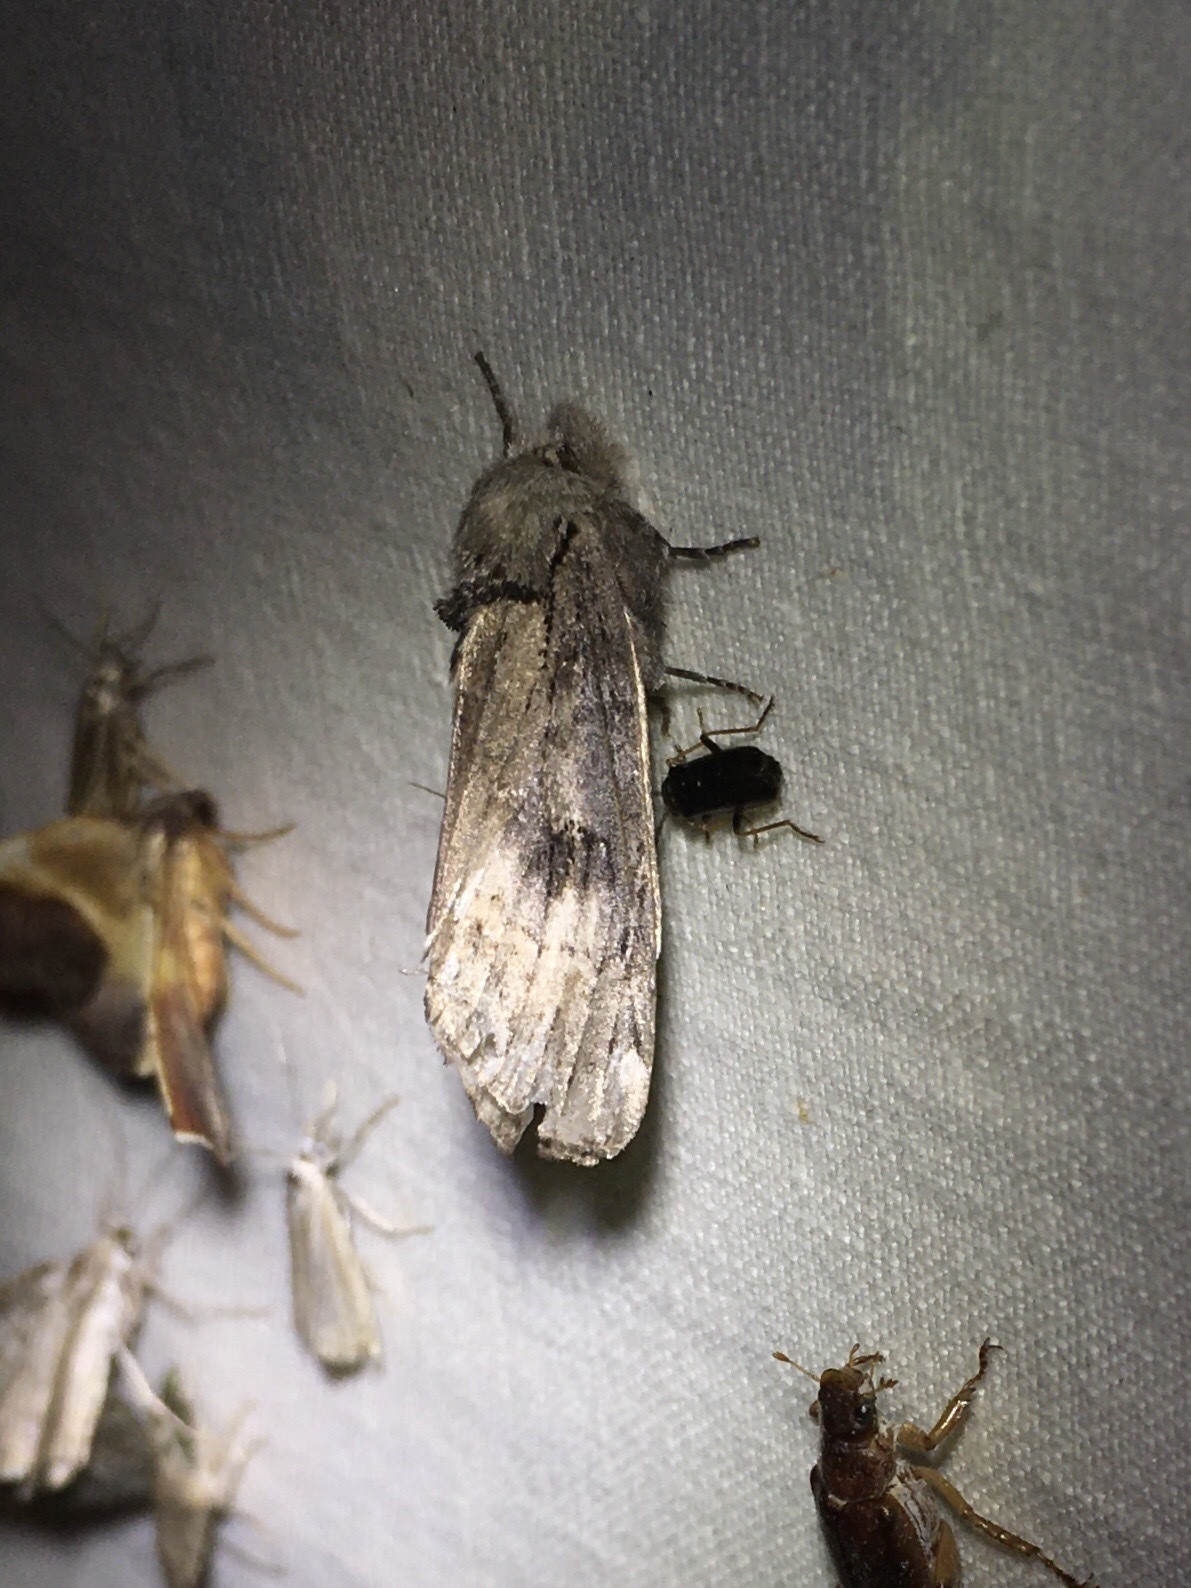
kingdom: Animalia
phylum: Arthropoda
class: Insecta
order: Lepidoptera
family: Notodontidae
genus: Schizura
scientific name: Schizura
